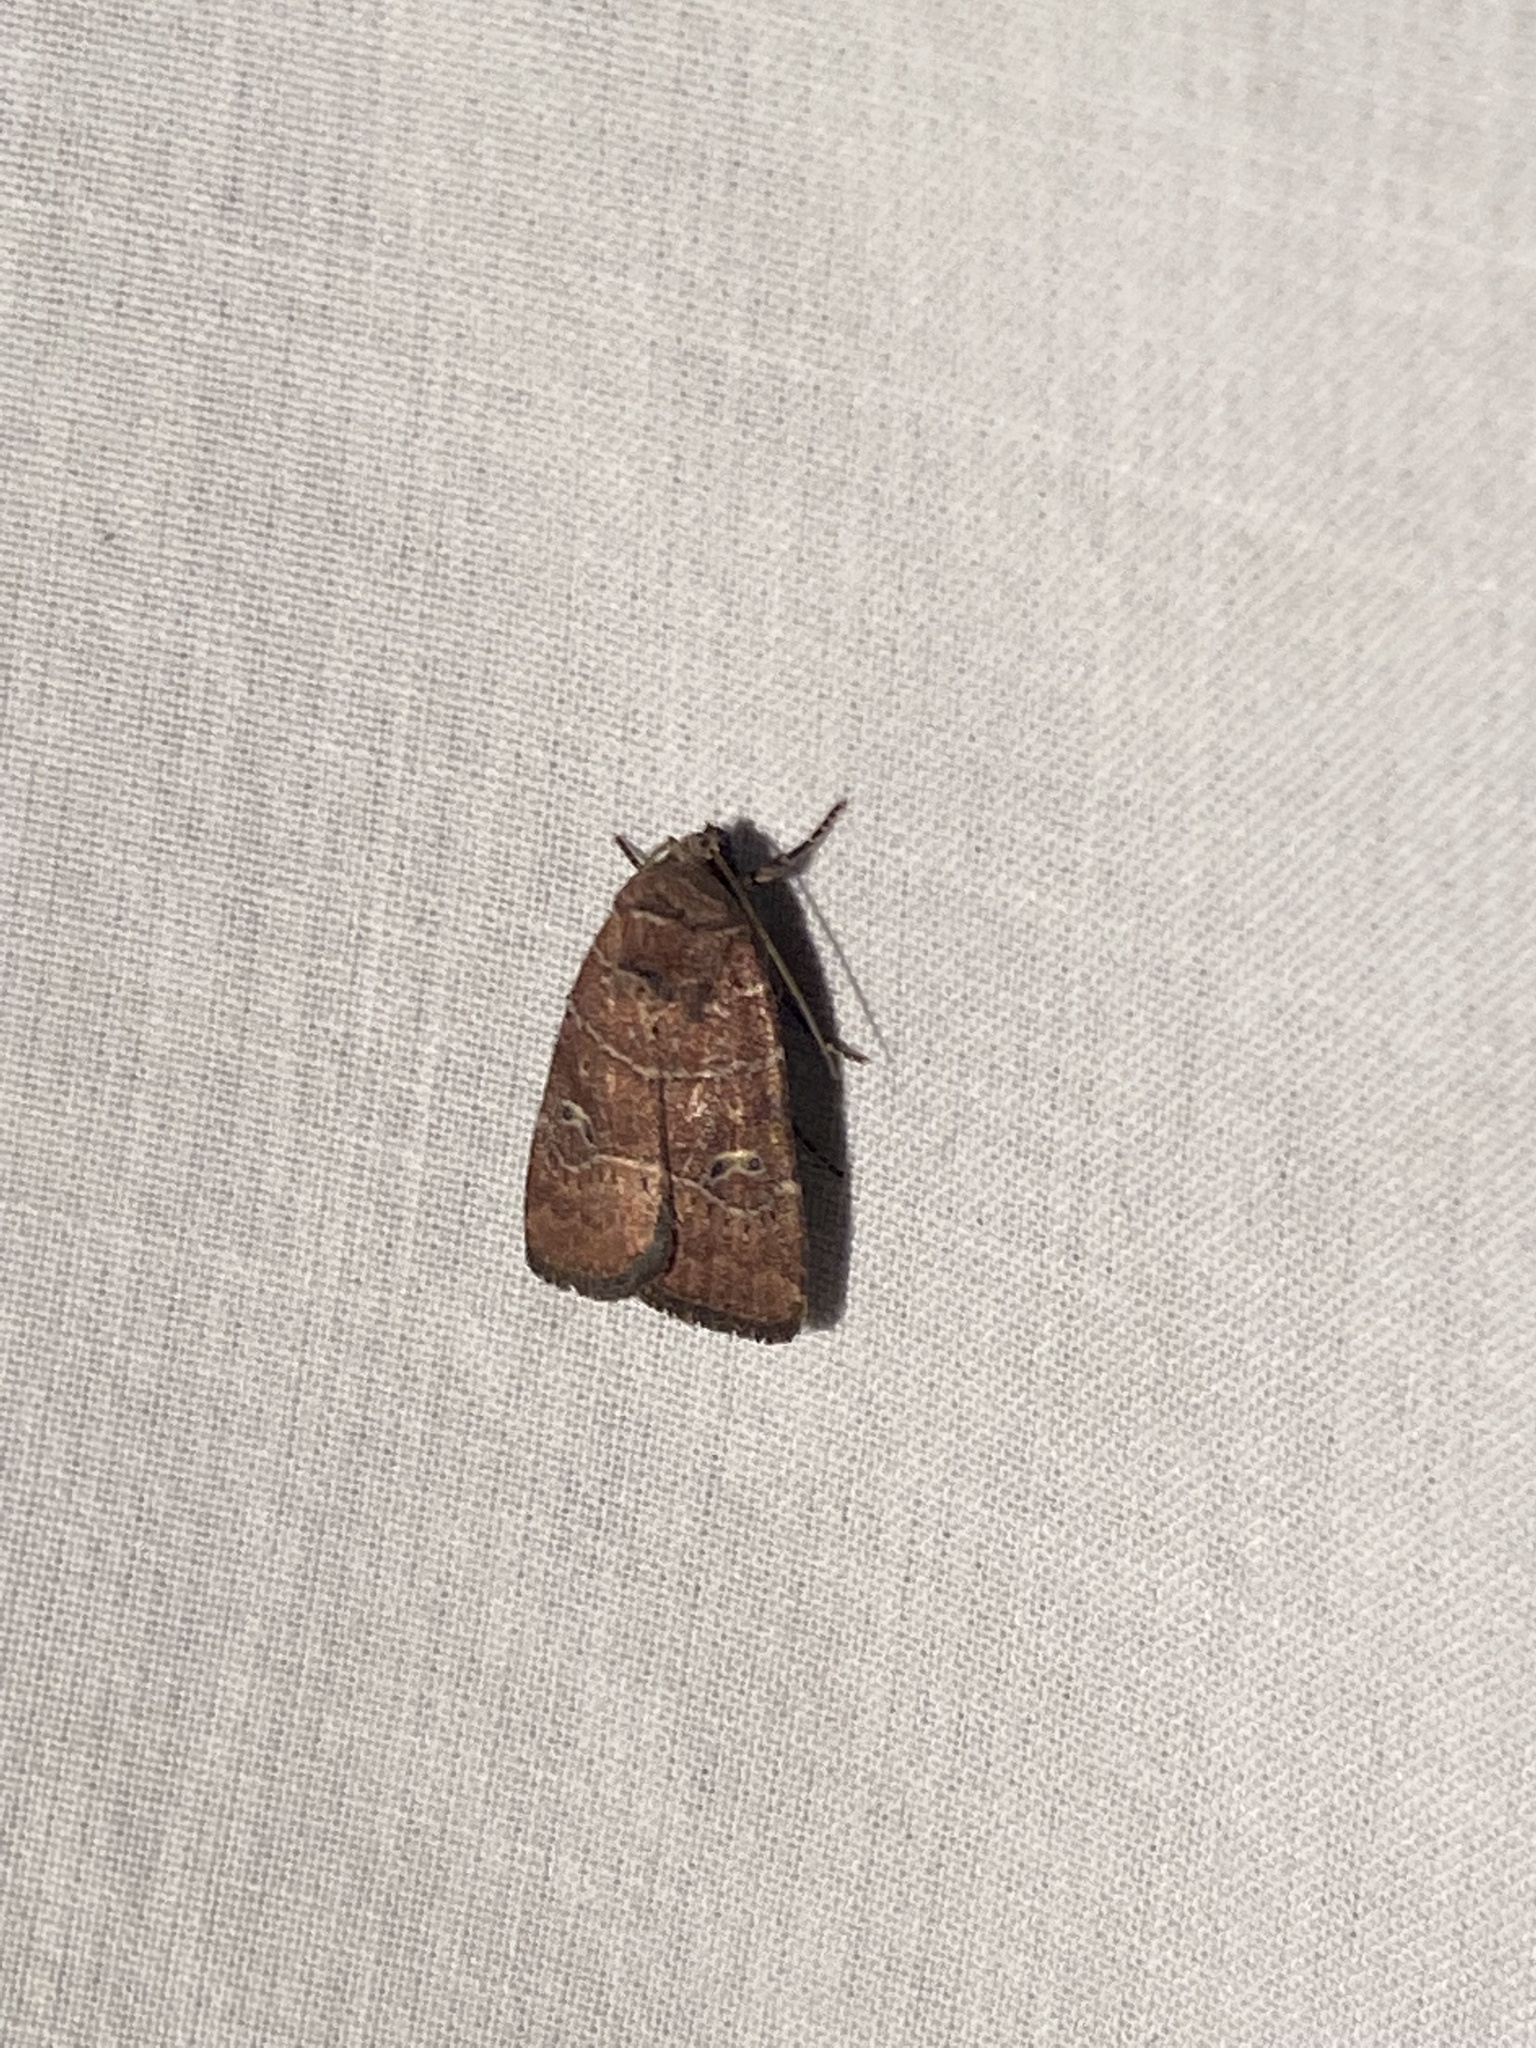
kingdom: Animalia
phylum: Arthropoda
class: Insecta
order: Lepidoptera
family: Noctuidae
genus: Elaphria
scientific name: Elaphria grata
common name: Grateful midget moth
